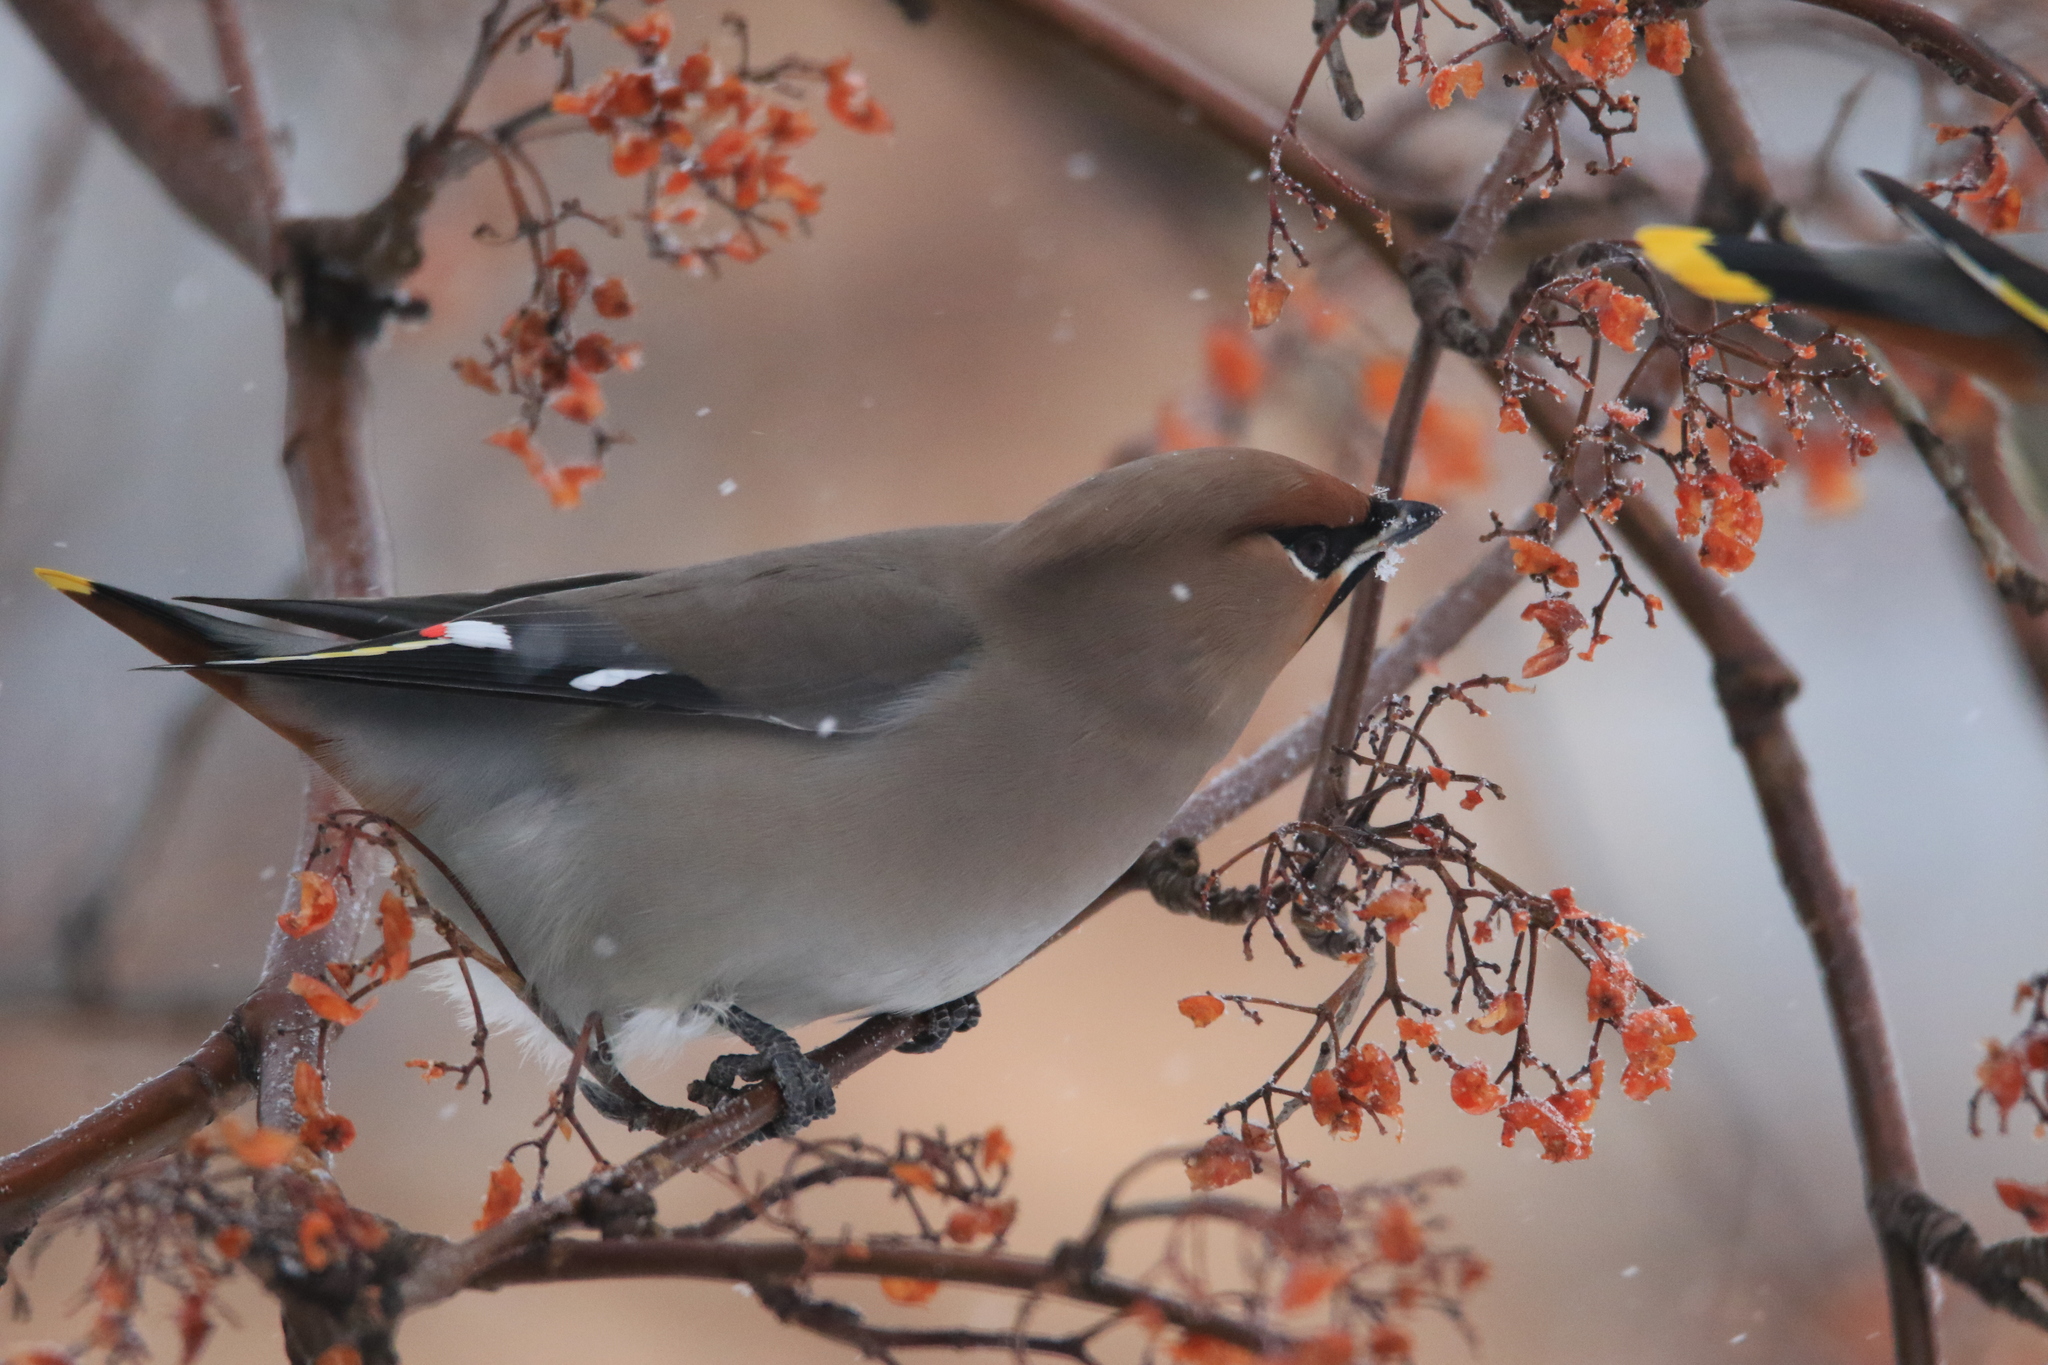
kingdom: Animalia
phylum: Chordata
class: Aves
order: Passeriformes
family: Bombycillidae
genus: Bombycilla
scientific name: Bombycilla garrulus
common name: Bohemian waxwing
